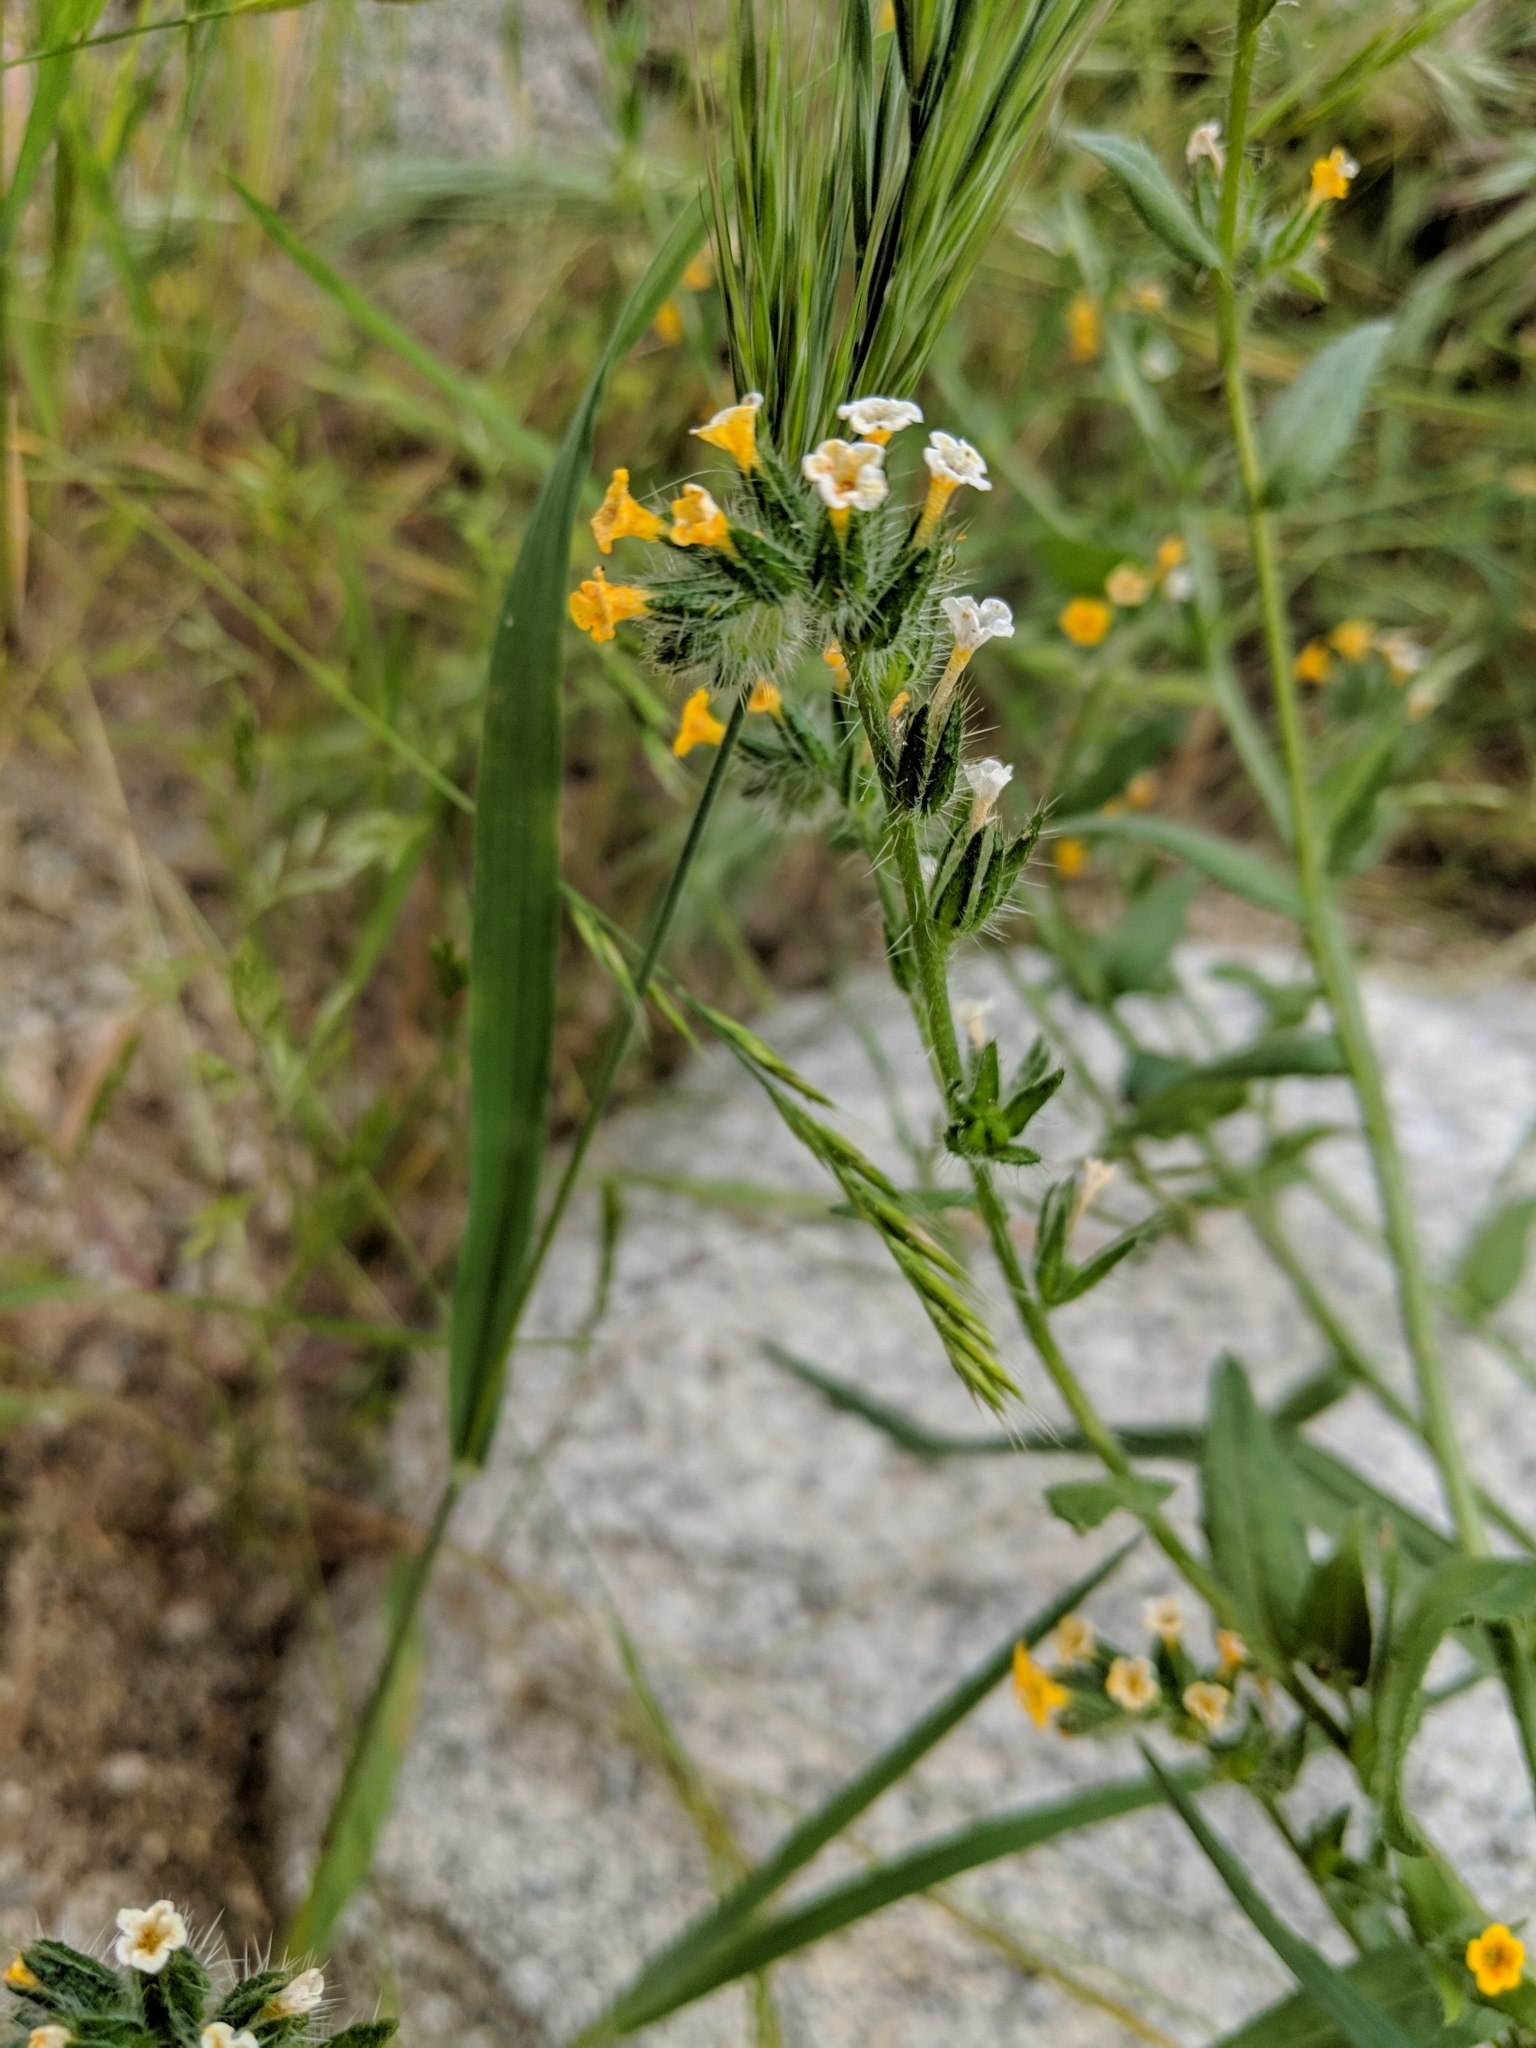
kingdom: Plantae
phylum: Tracheophyta
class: Magnoliopsida
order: Boraginales
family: Boraginaceae
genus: Amsinckia
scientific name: Amsinckia menziesii
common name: Menzies' fiddleneck
